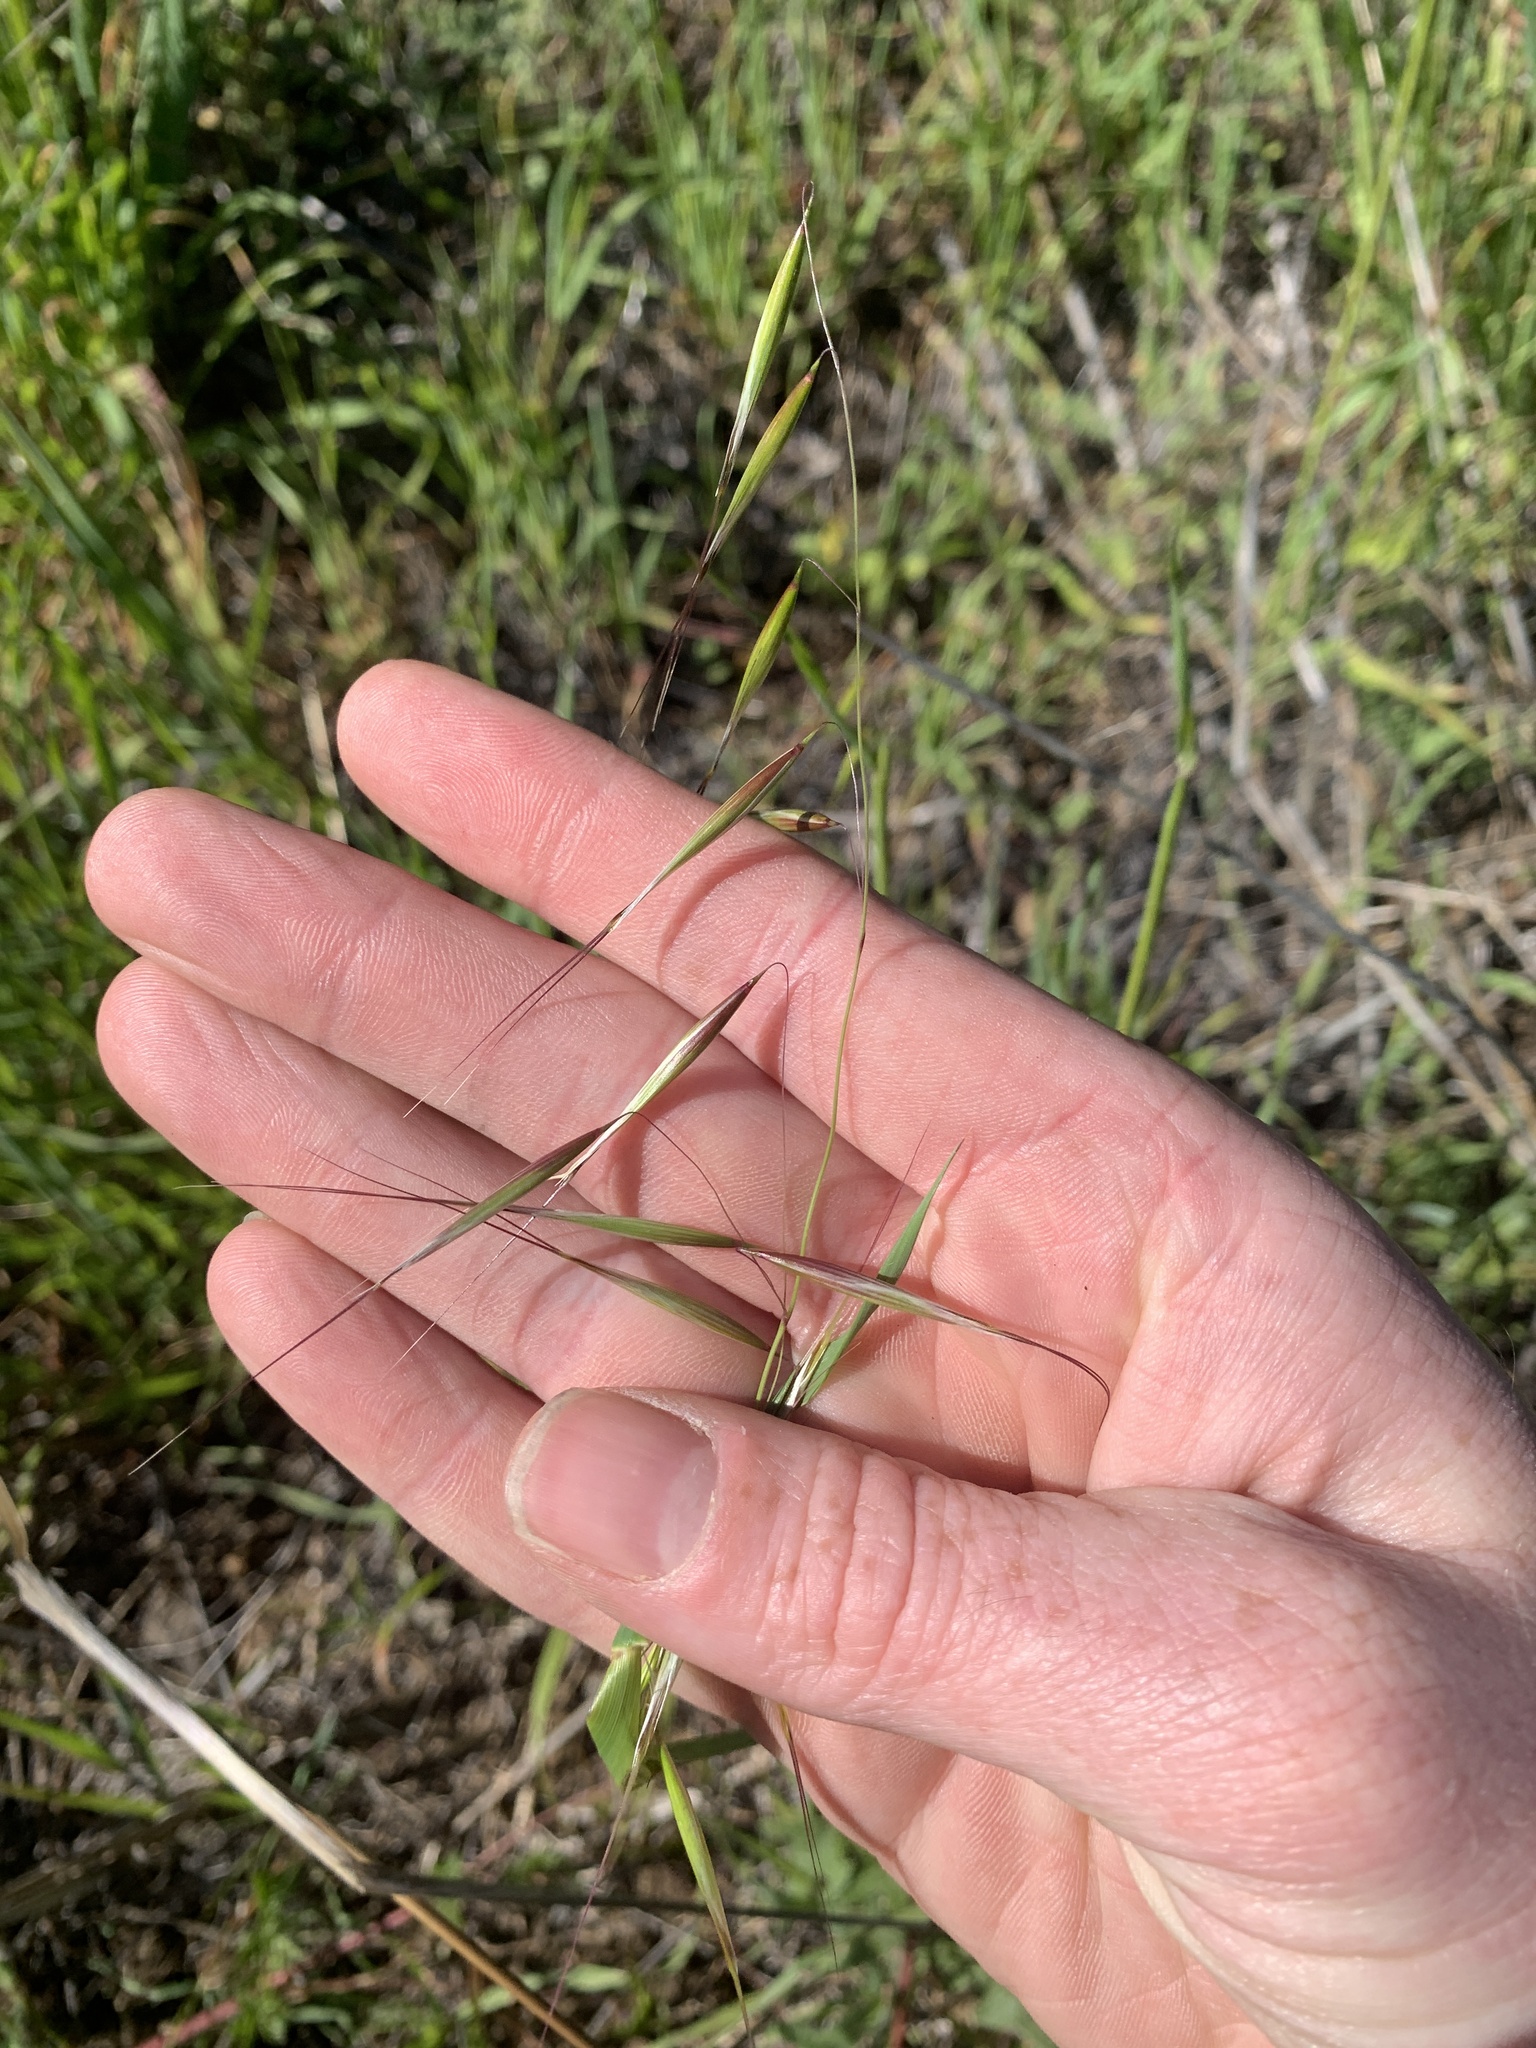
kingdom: Plantae
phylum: Tracheophyta
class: Liliopsida
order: Poales
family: Poaceae
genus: Avena
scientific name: Avena barbata
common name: Slender oat
